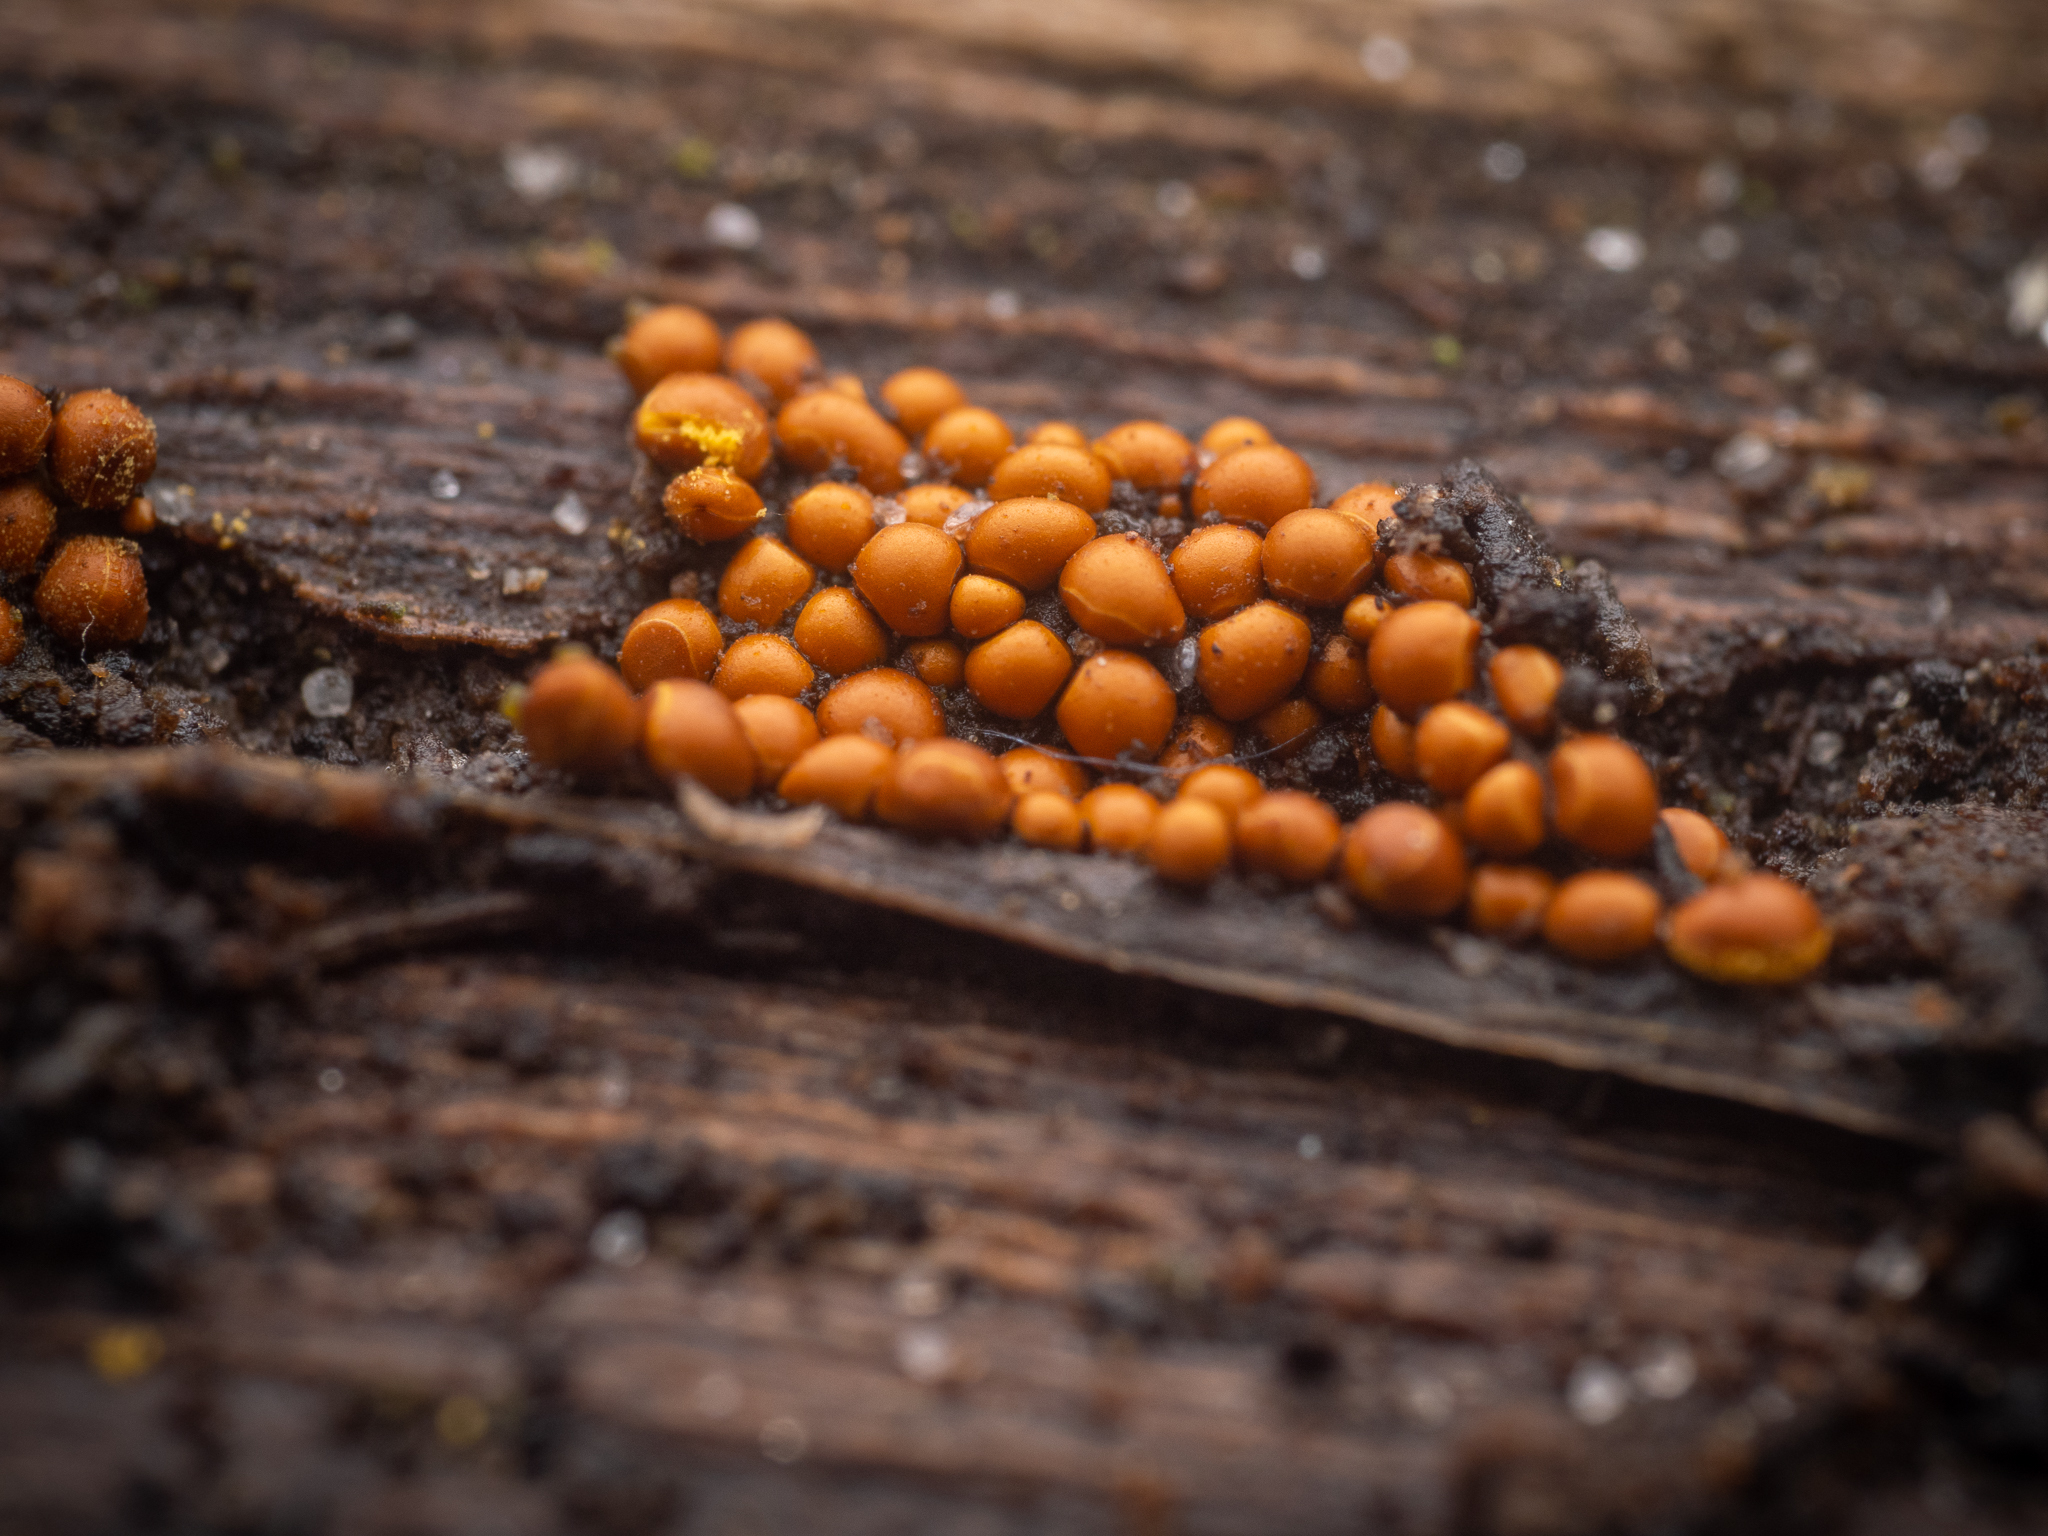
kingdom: Protozoa
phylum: Mycetozoa
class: Myxomycetes
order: Trichiales
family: Trichiaceae
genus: Perichaena
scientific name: Perichaena corticalis
